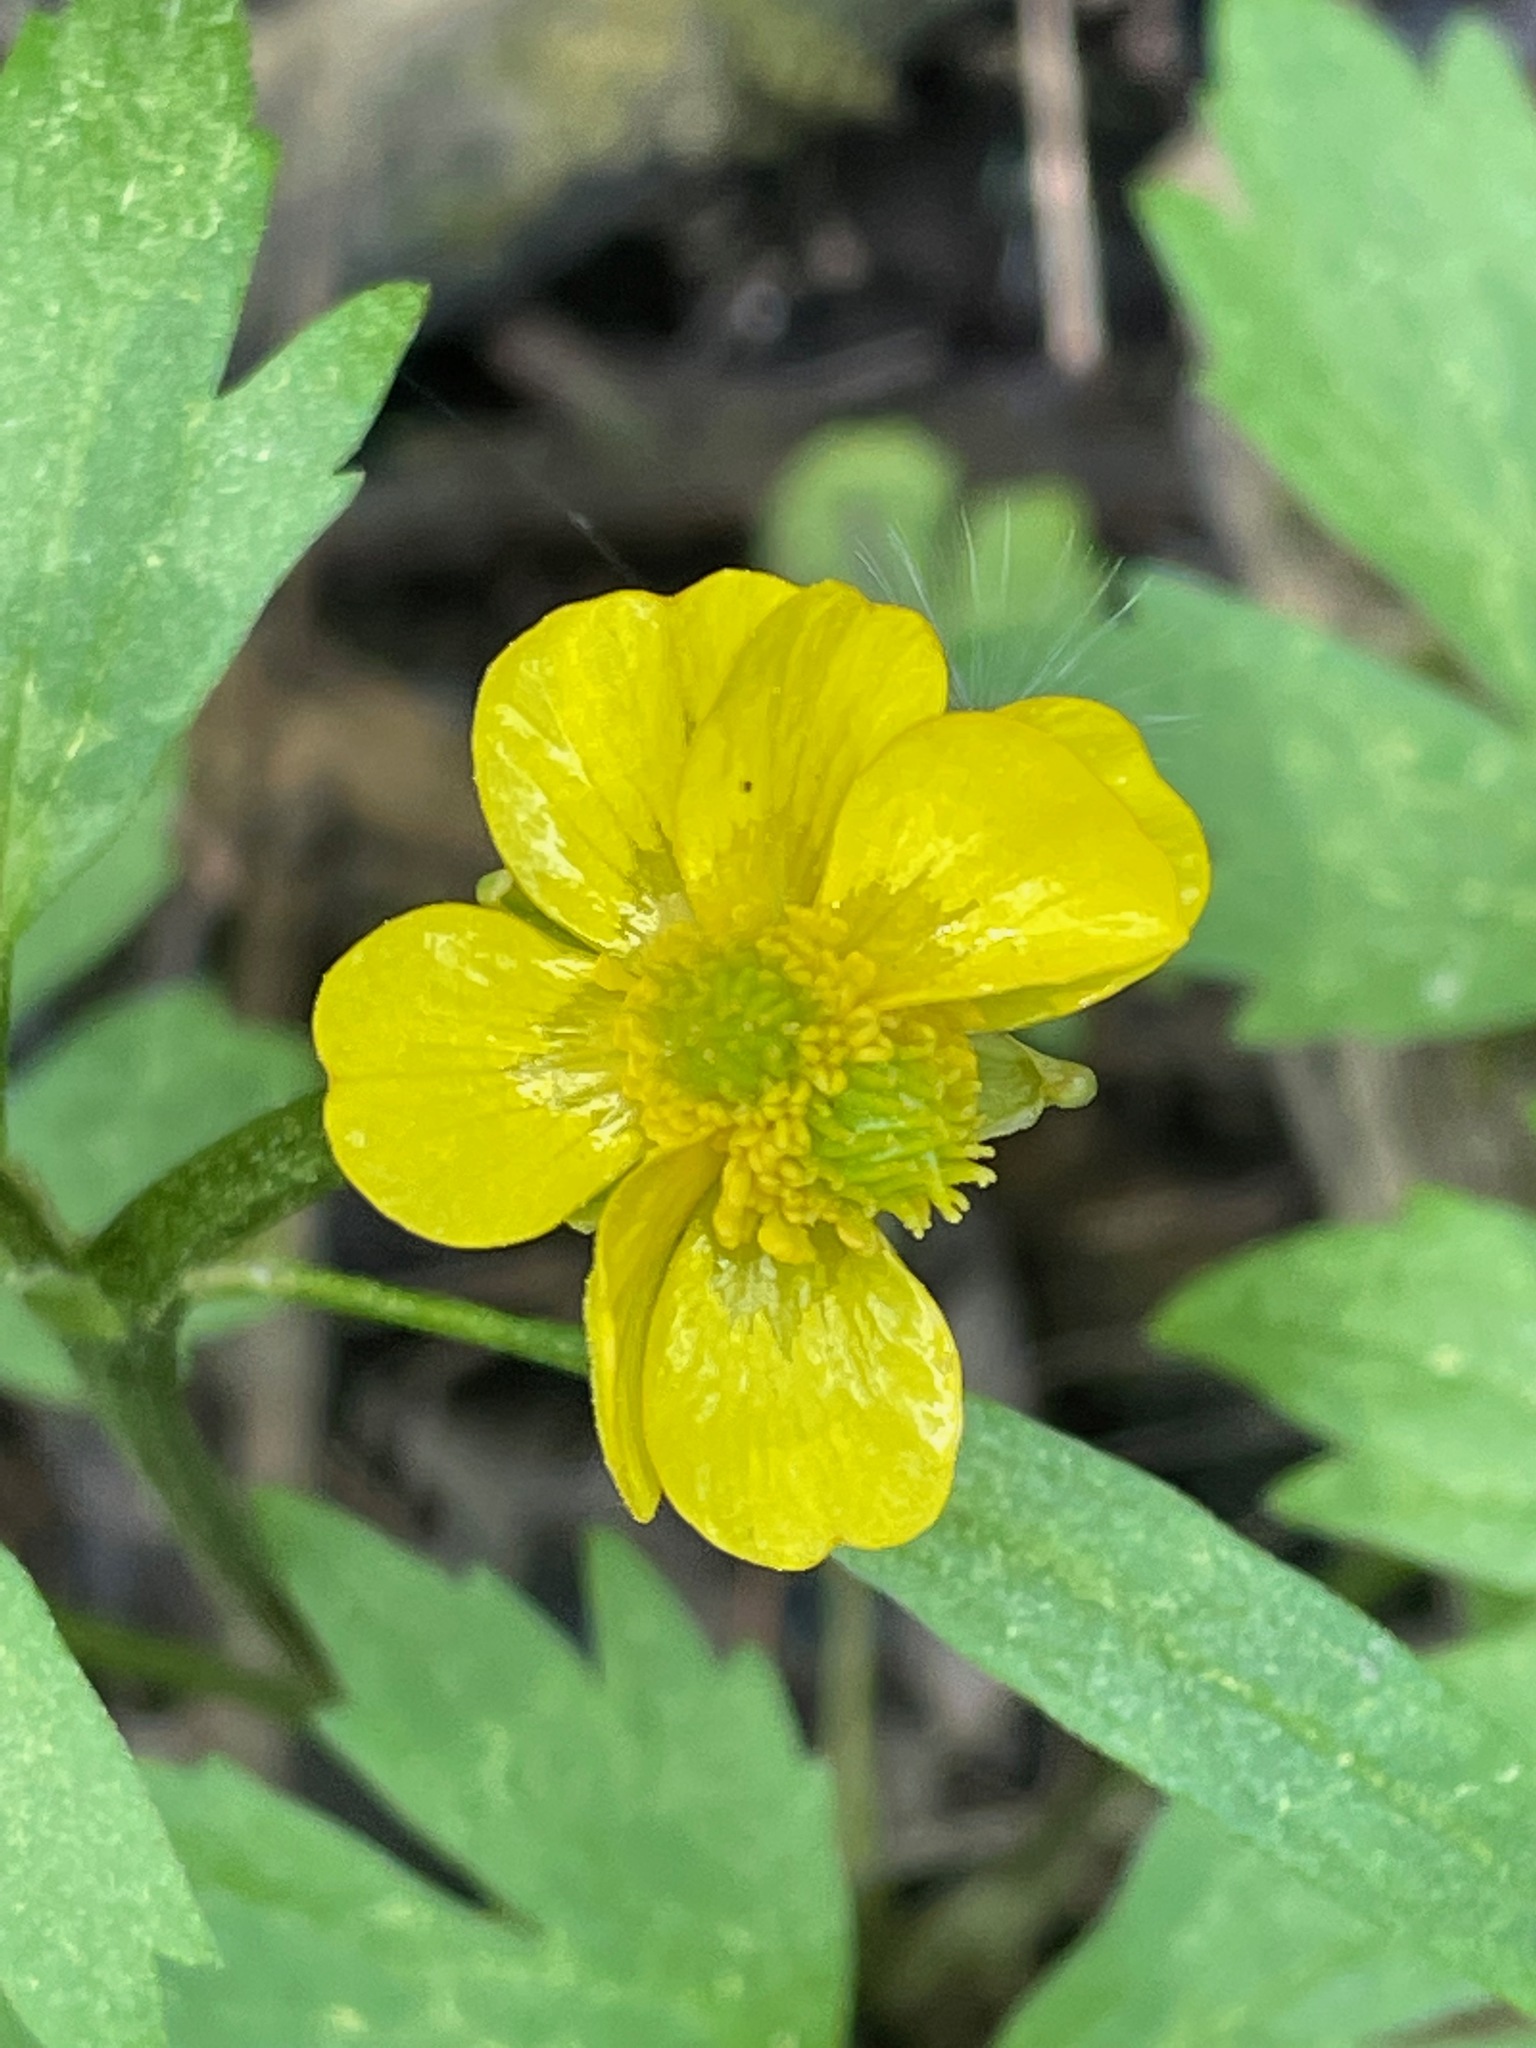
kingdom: Plantae
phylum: Tracheophyta
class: Magnoliopsida
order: Ranunculales
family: Ranunculaceae
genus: Ranunculus
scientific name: Ranunculus hispidus
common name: Bristly buttercup
